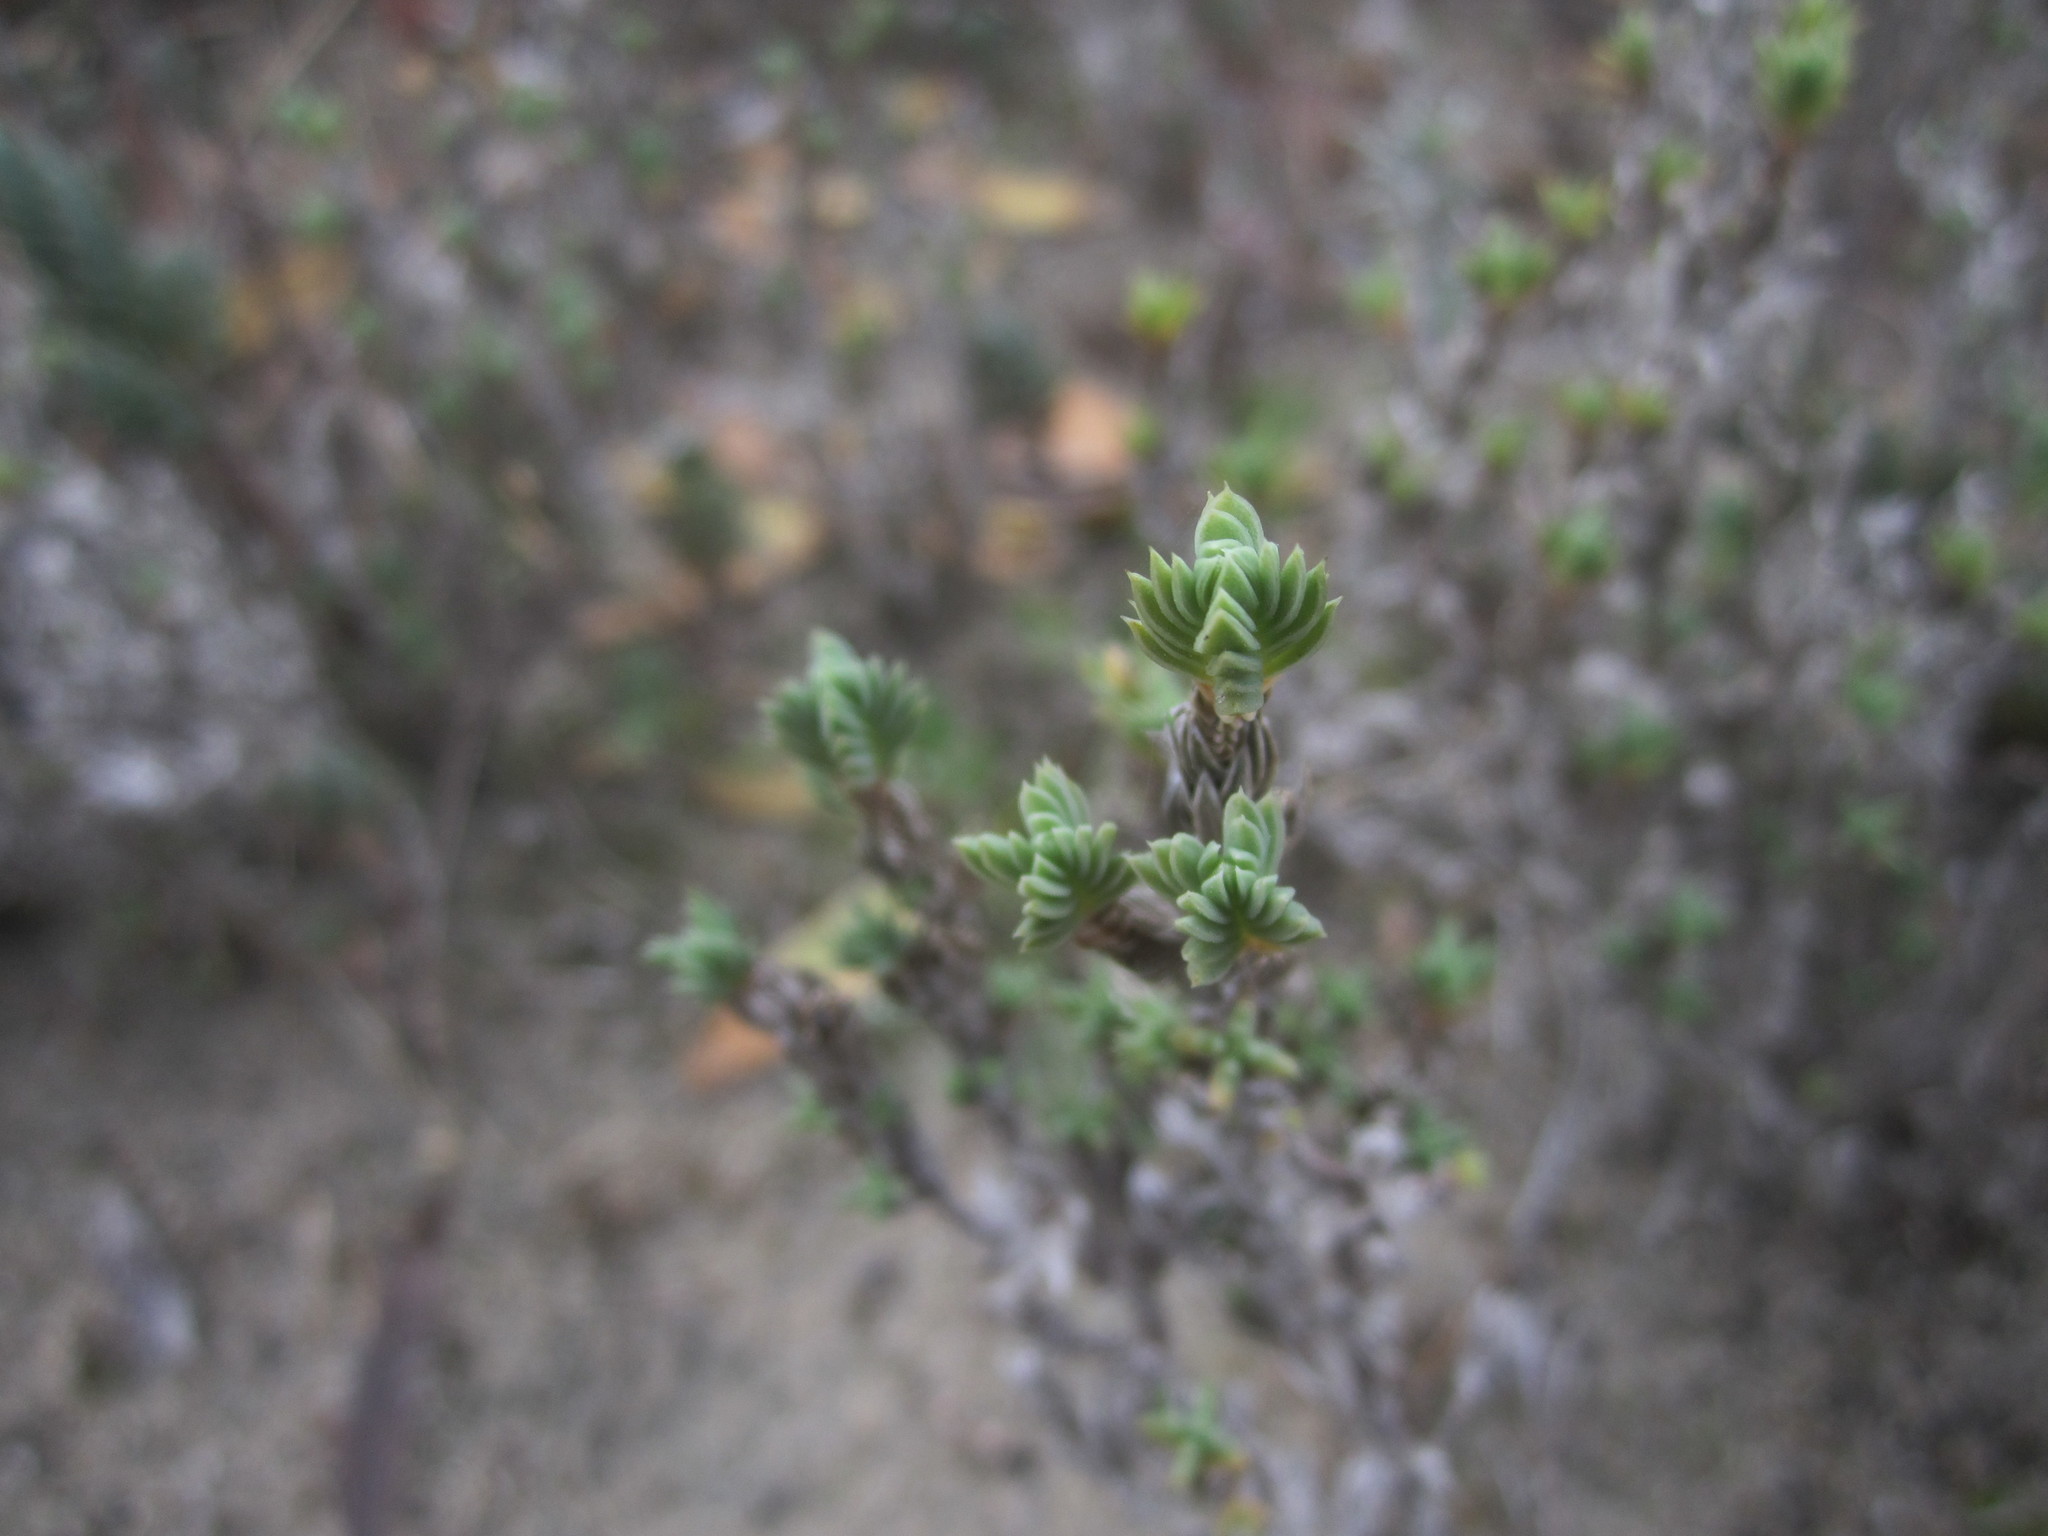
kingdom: Plantae
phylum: Tracheophyta
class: Magnoliopsida
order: Gentianales
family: Rubiaceae
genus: Crucianella
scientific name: Crucianella maritima
